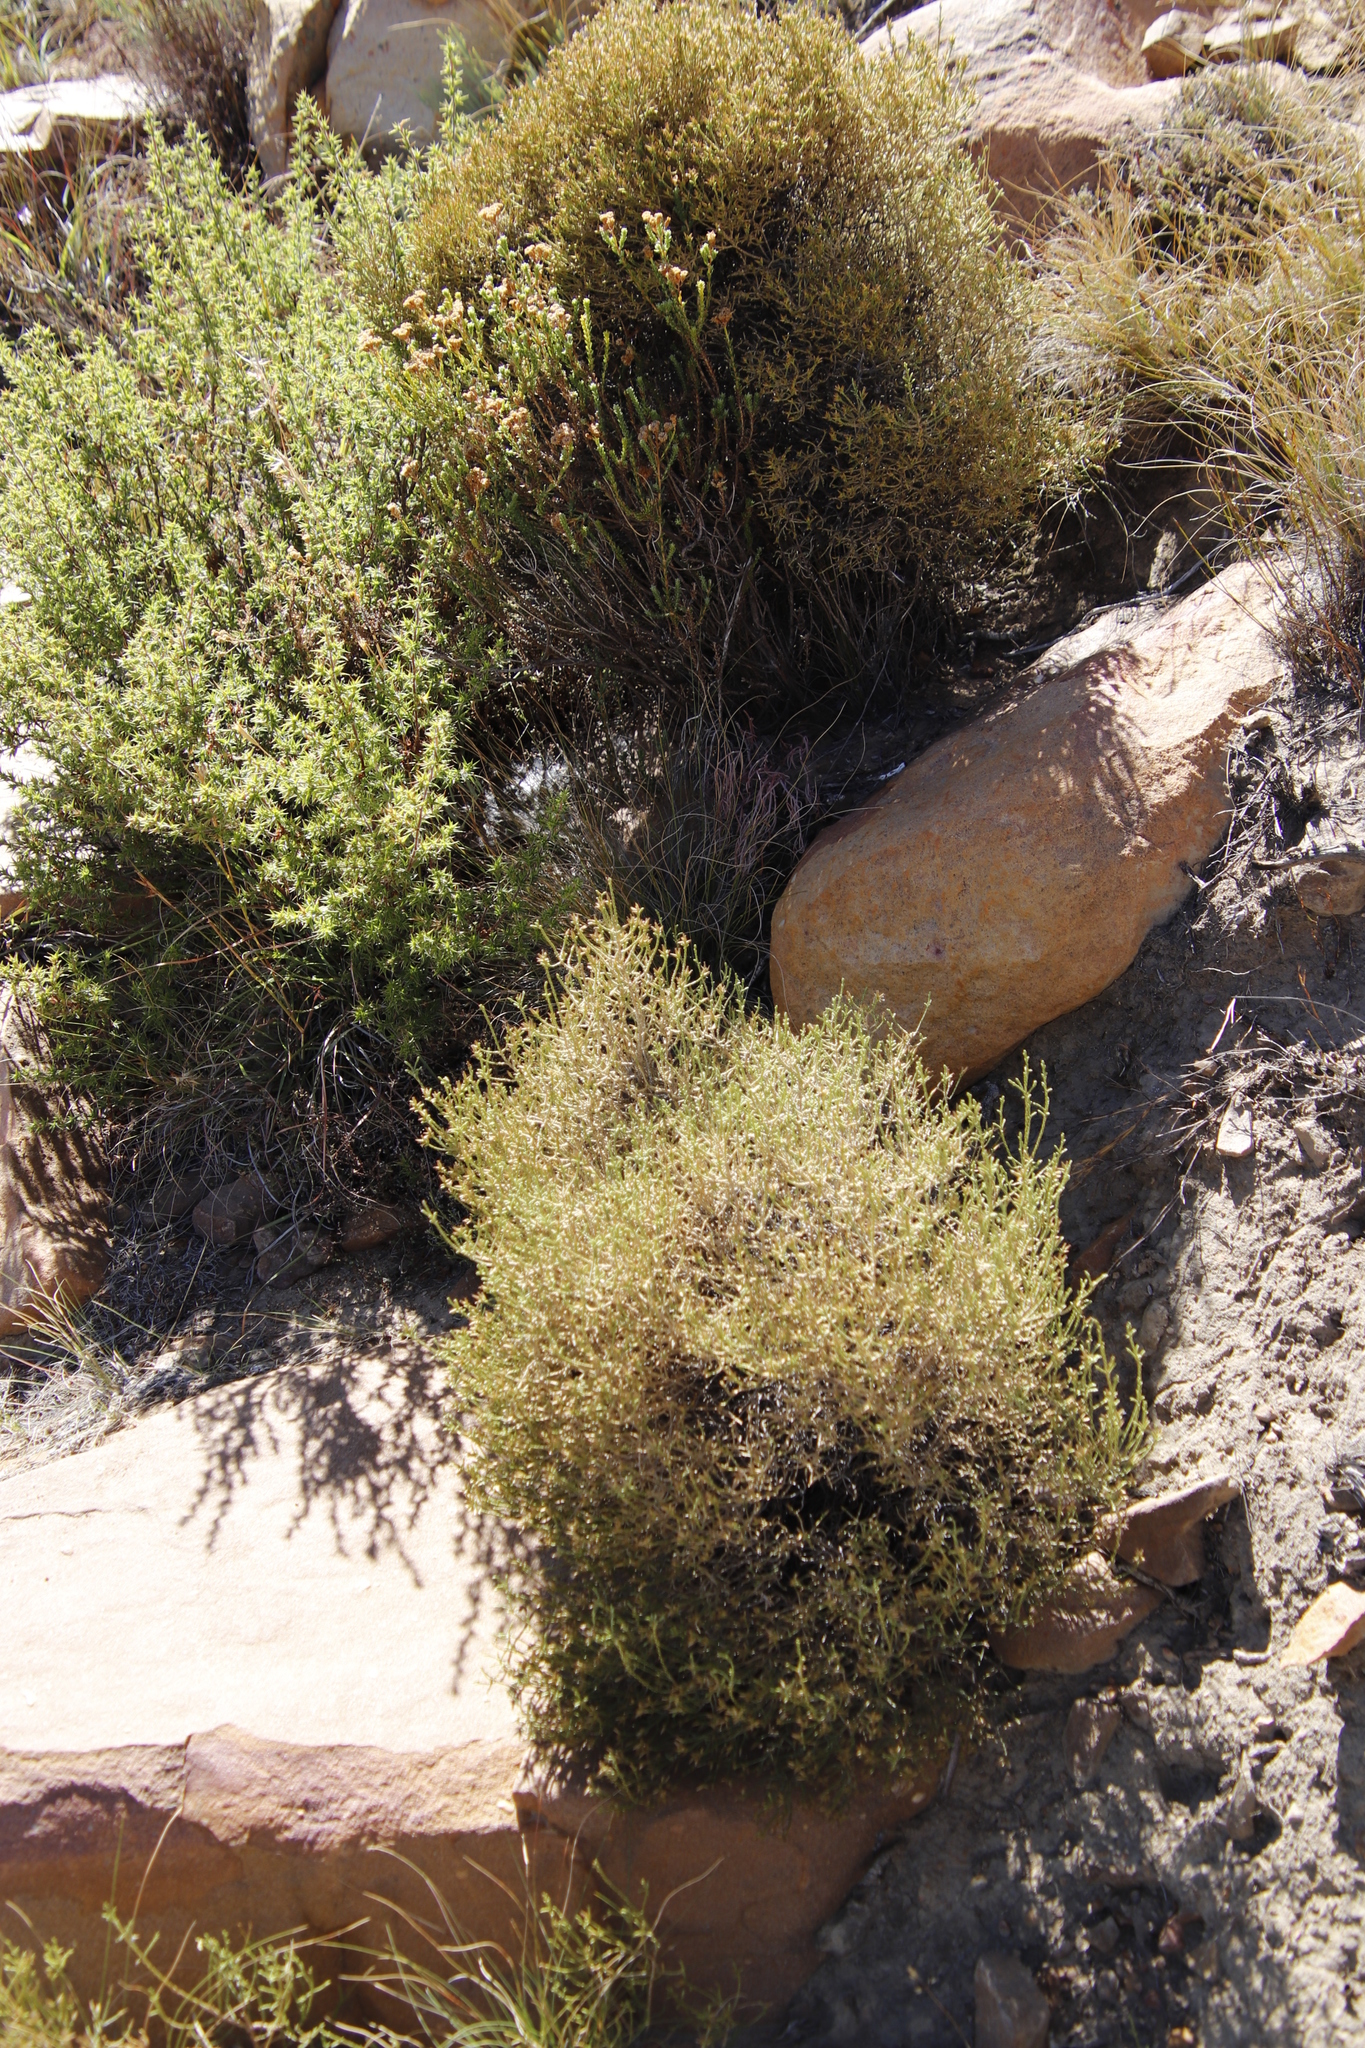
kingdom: Plantae
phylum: Tracheophyta
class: Magnoliopsida
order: Asterales
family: Asteraceae
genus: Dicerothamnus
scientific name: Dicerothamnus adpressus
